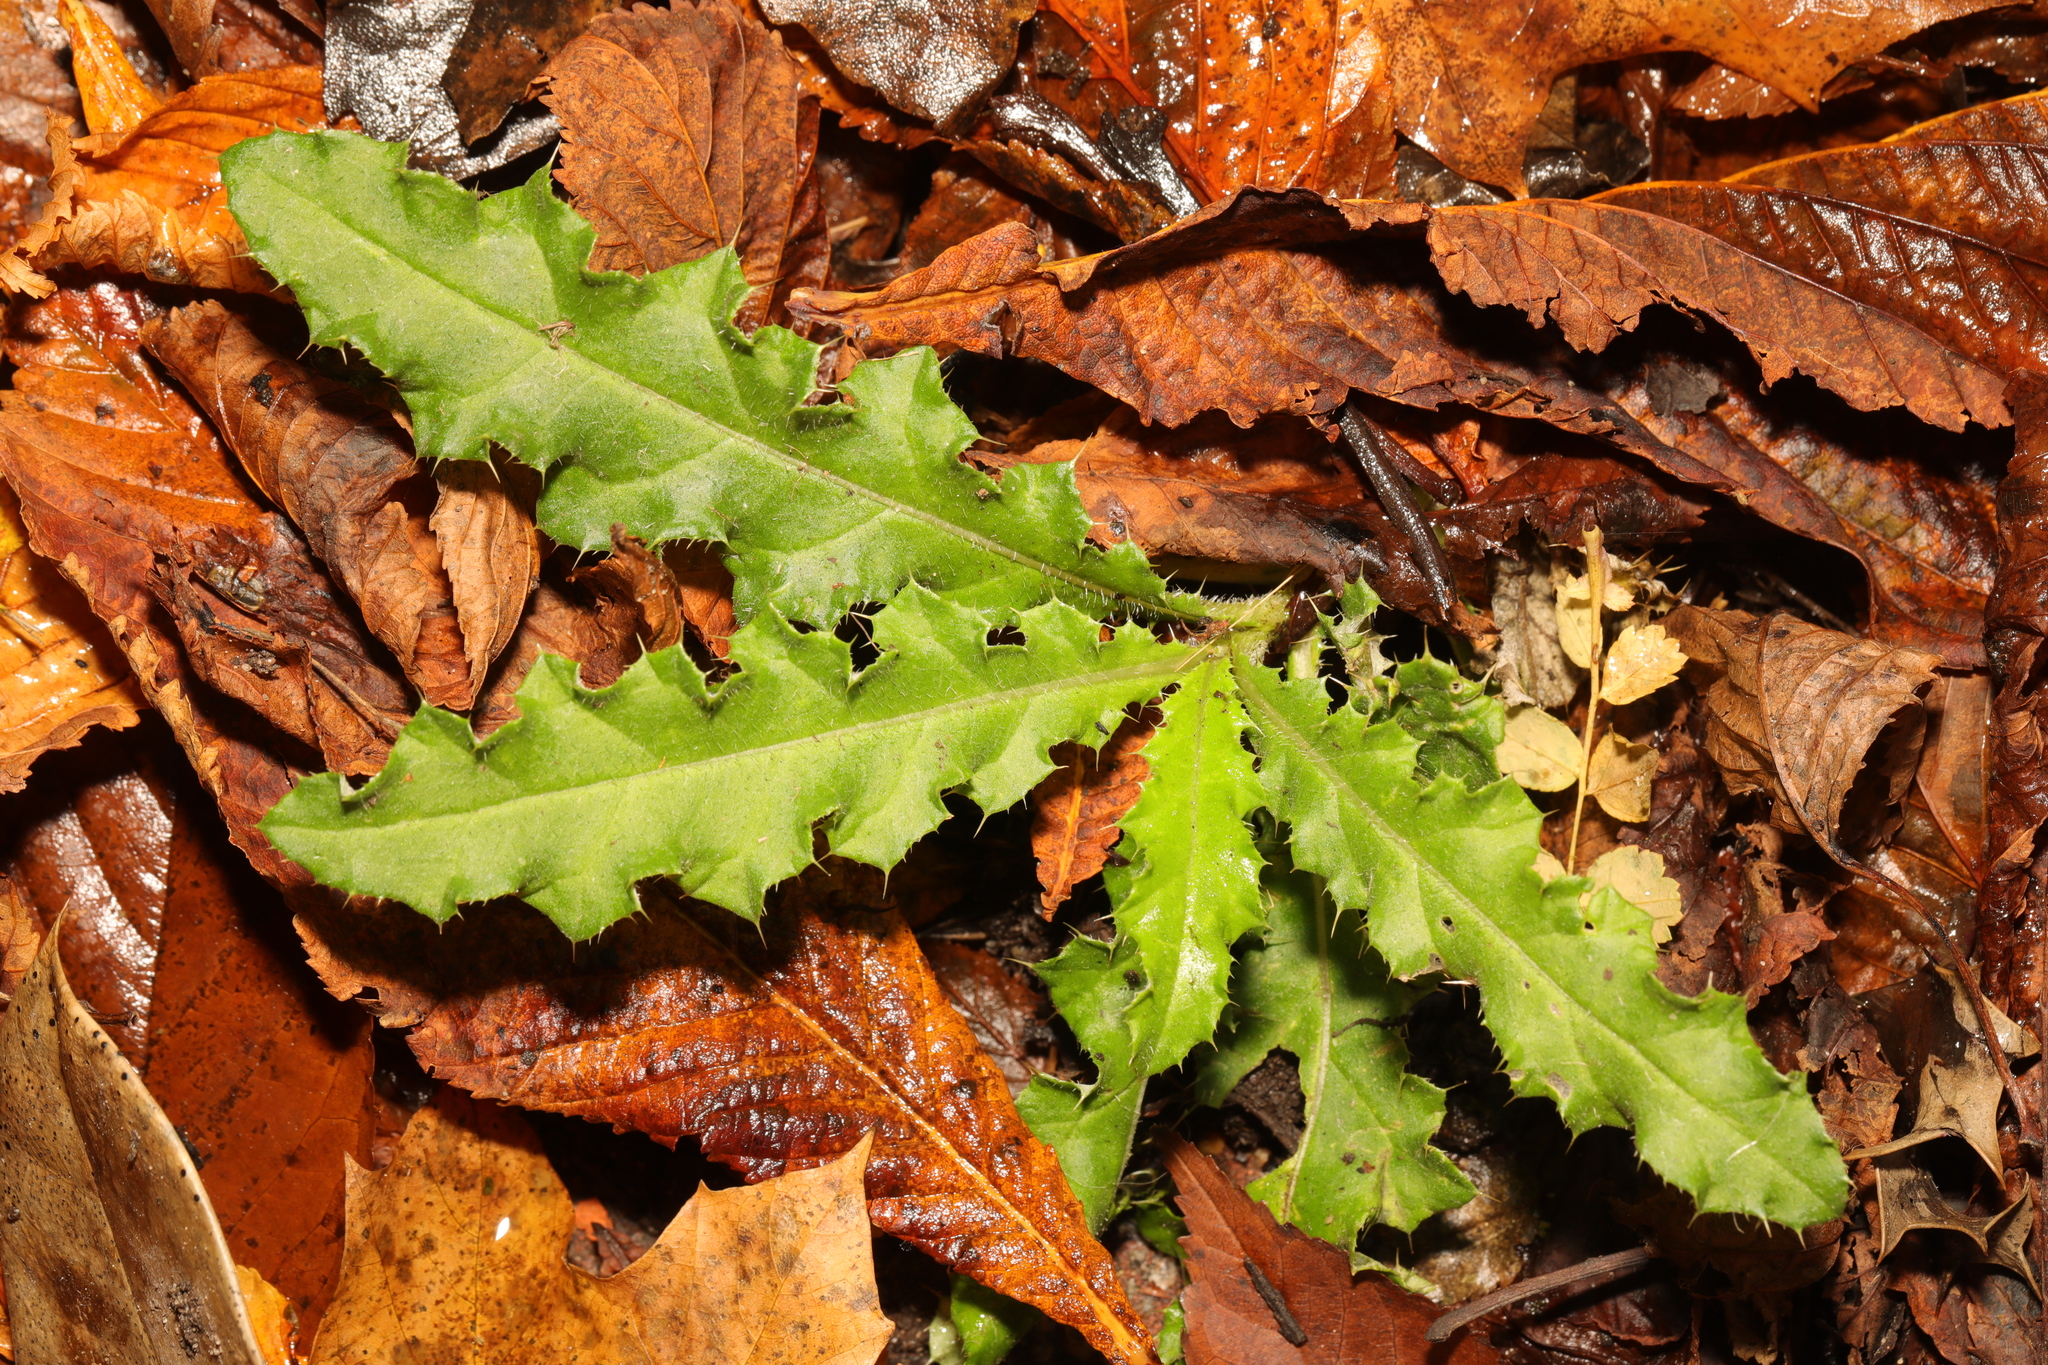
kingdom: Plantae
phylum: Tracheophyta
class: Magnoliopsida
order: Asterales
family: Asteraceae
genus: Cirsium
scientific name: Cirsium arvense
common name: Creeping thistle
